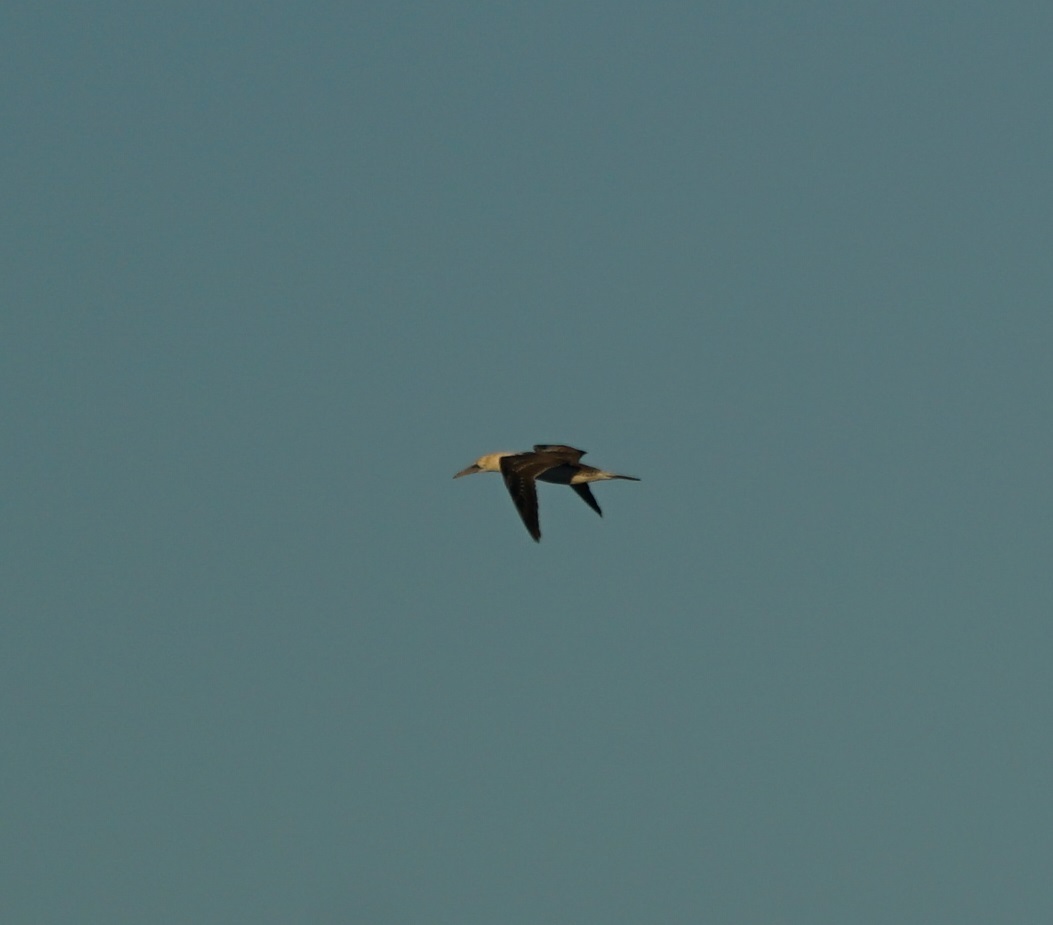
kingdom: Animalia
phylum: Chordata
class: Aves
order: Suliformes
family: Sulidae
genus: Morus
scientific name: Morus serrator
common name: Australasian gannet
